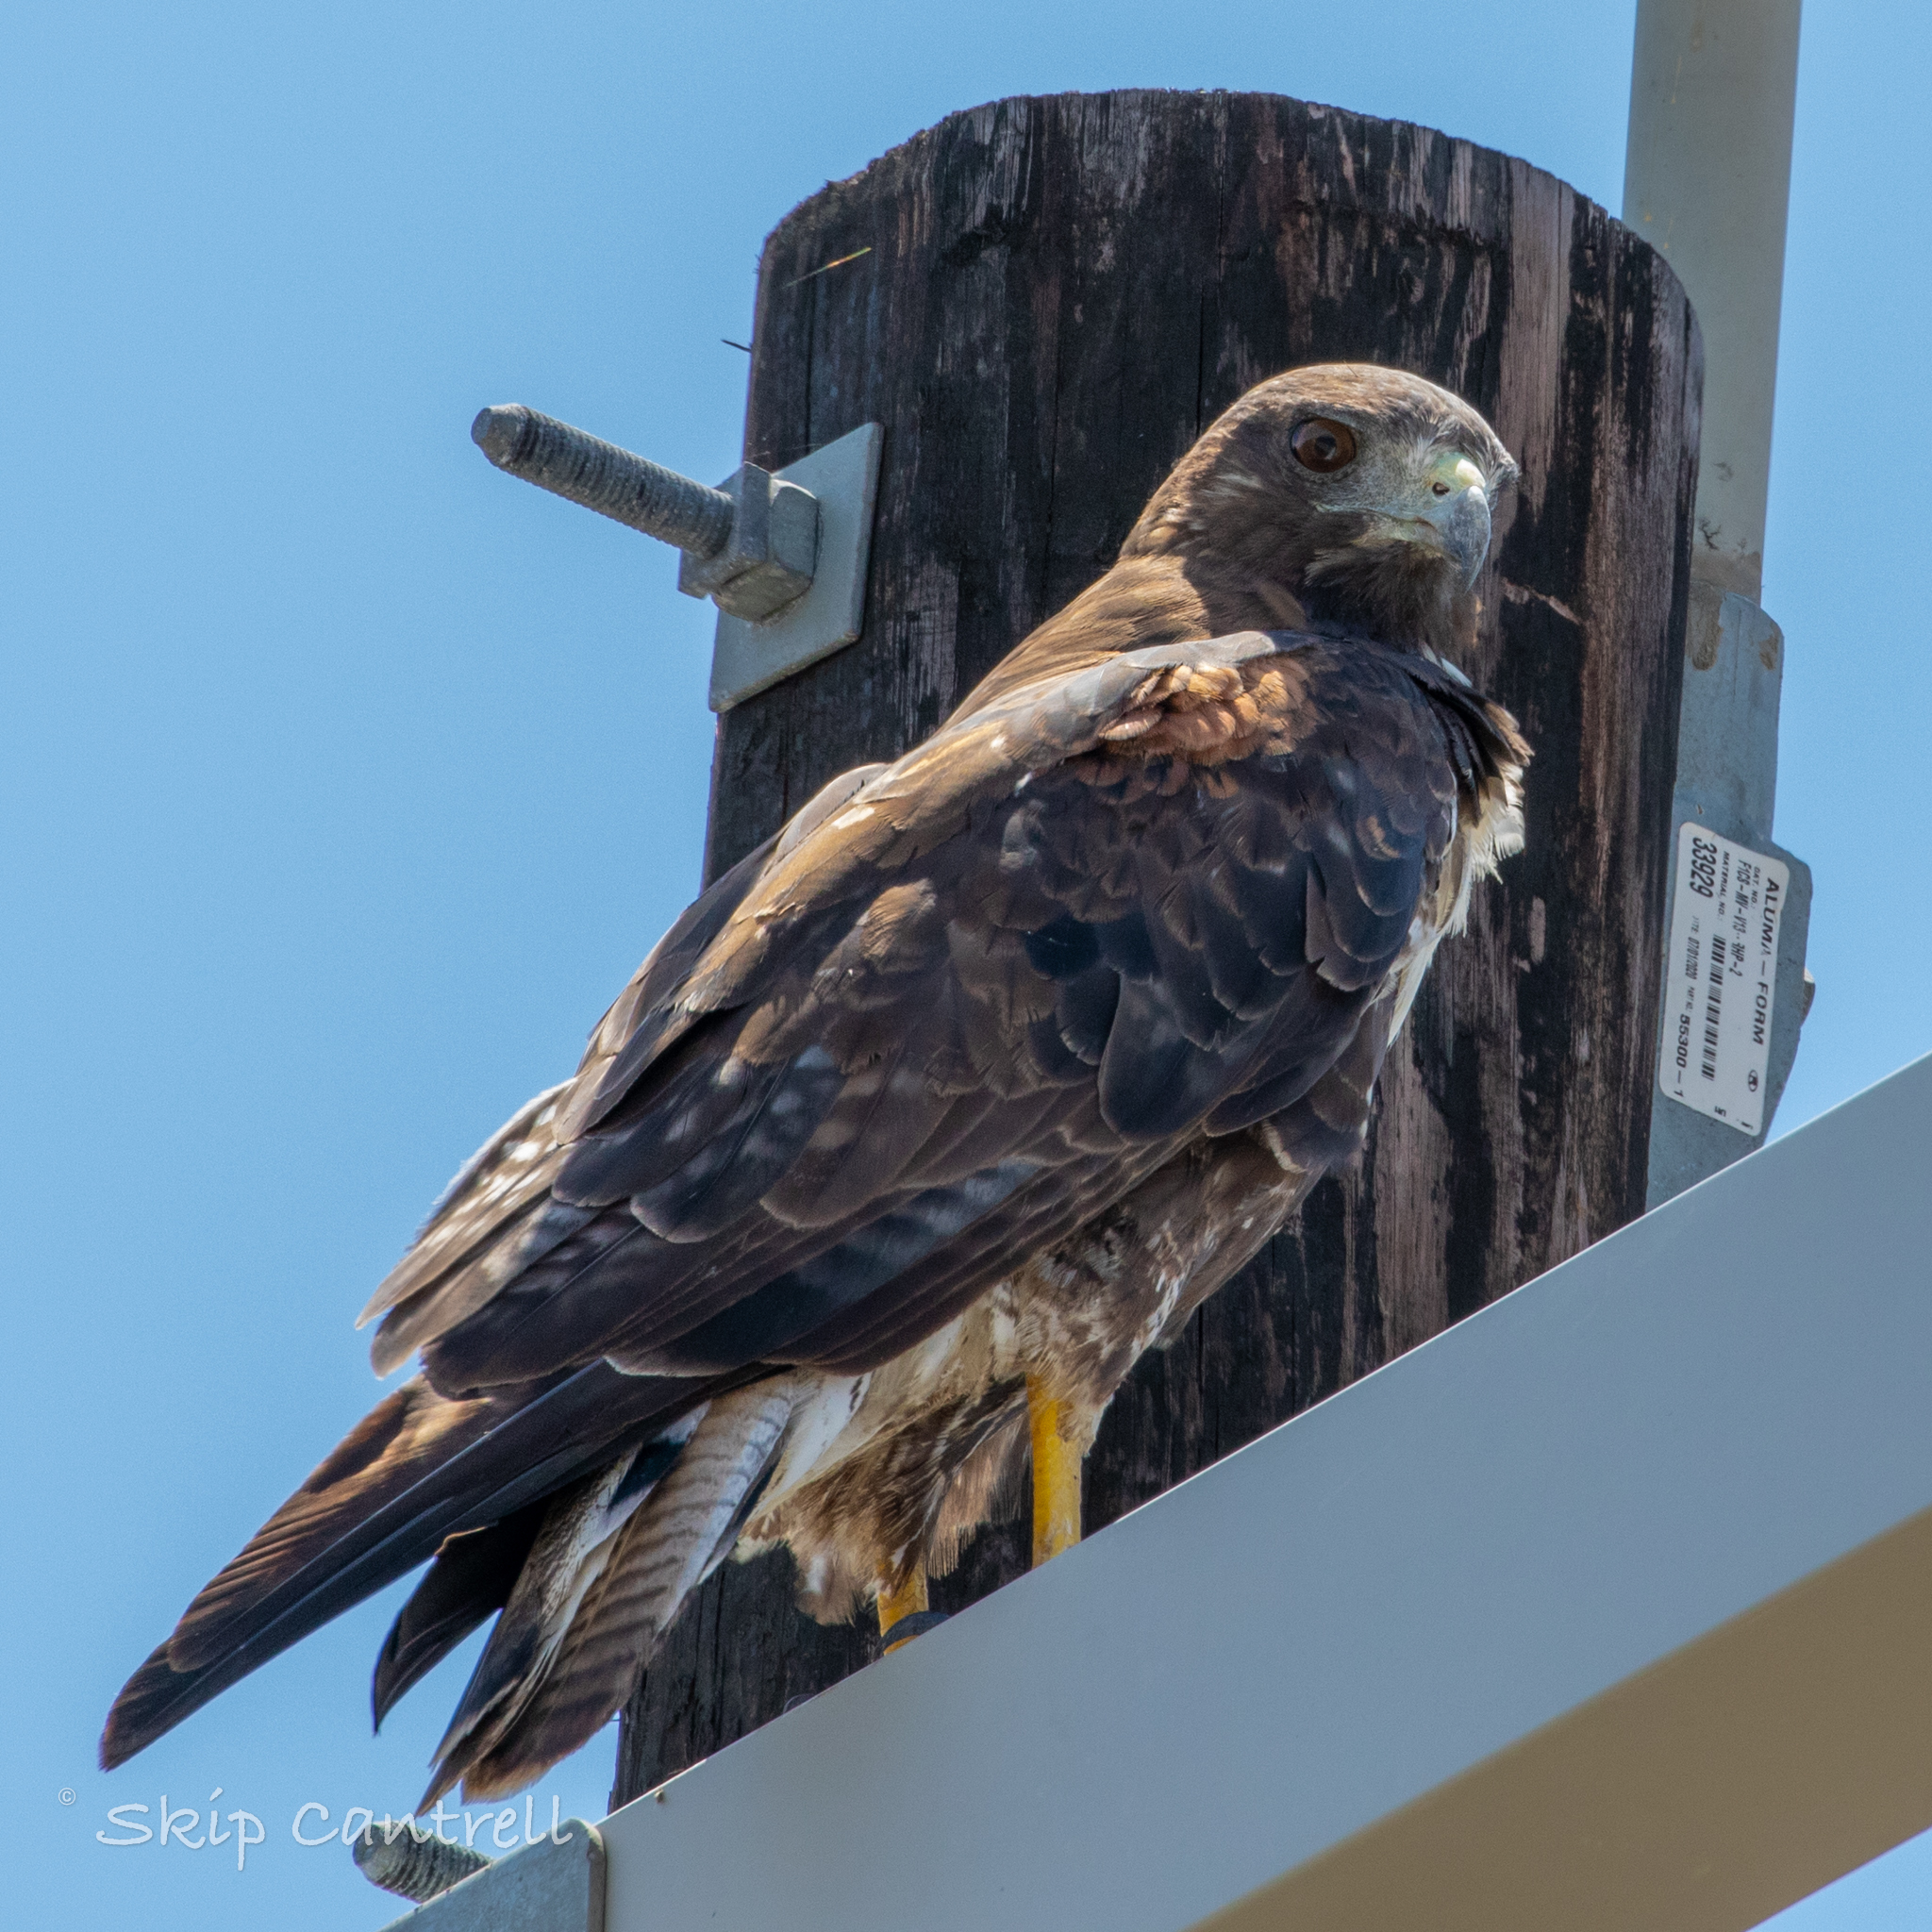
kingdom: Animalia
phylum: Chordata
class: Aves
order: Accipitriformes
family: Accipitridae
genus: Buteo
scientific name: Buteo albicaudatus
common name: White-tailed hawk
